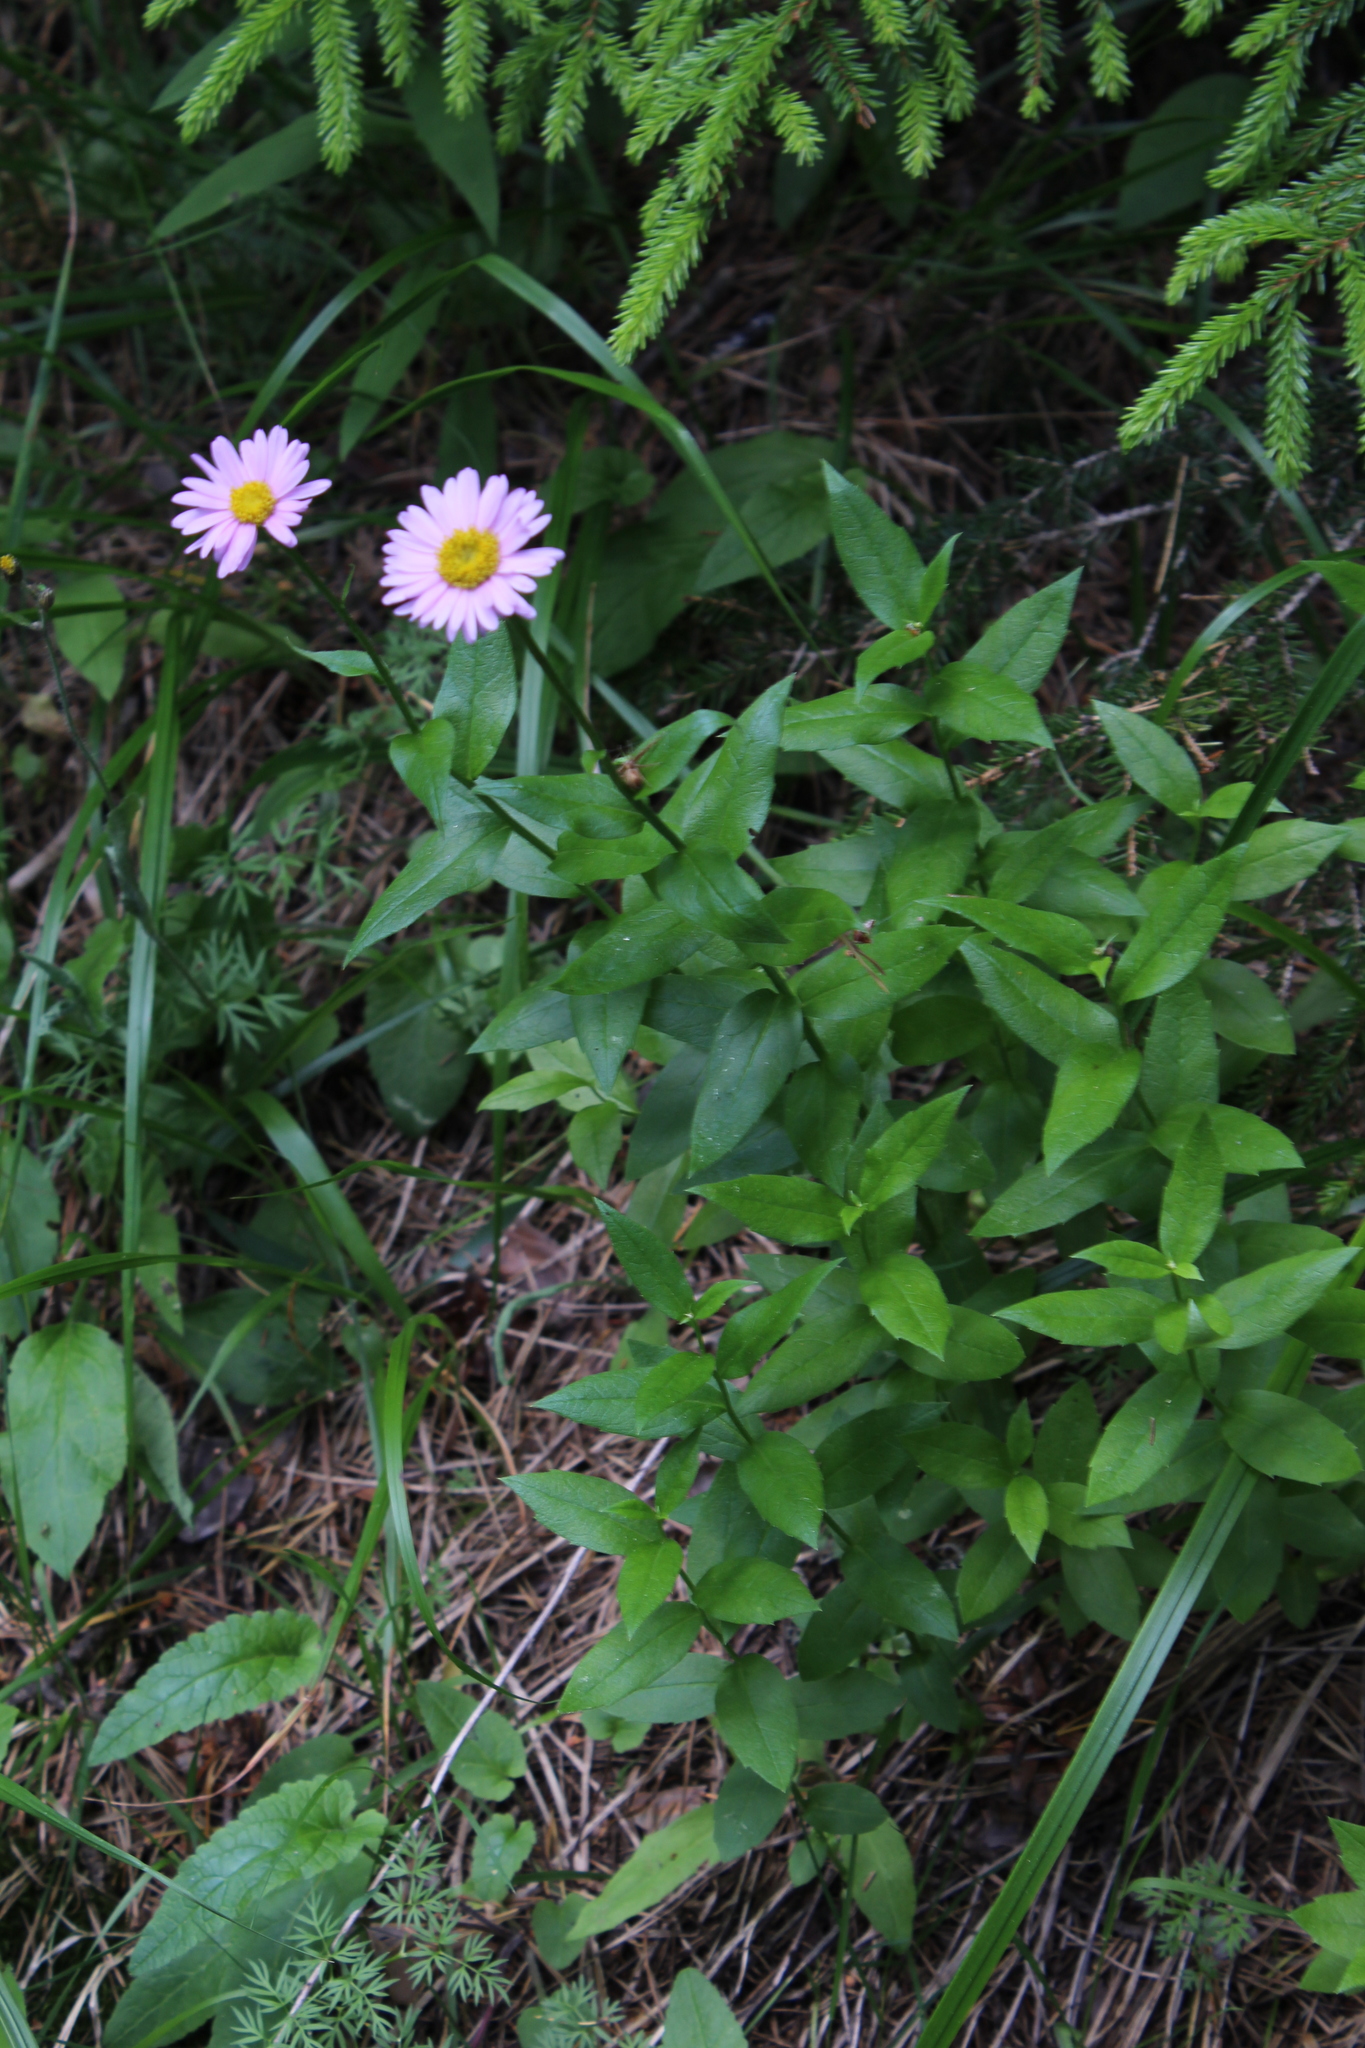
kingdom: Plantae
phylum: Tracheophyta
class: Magnoliopsida
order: Asterales
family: Asteraceae
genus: Kemulariella
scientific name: Kemulariella caucasica
